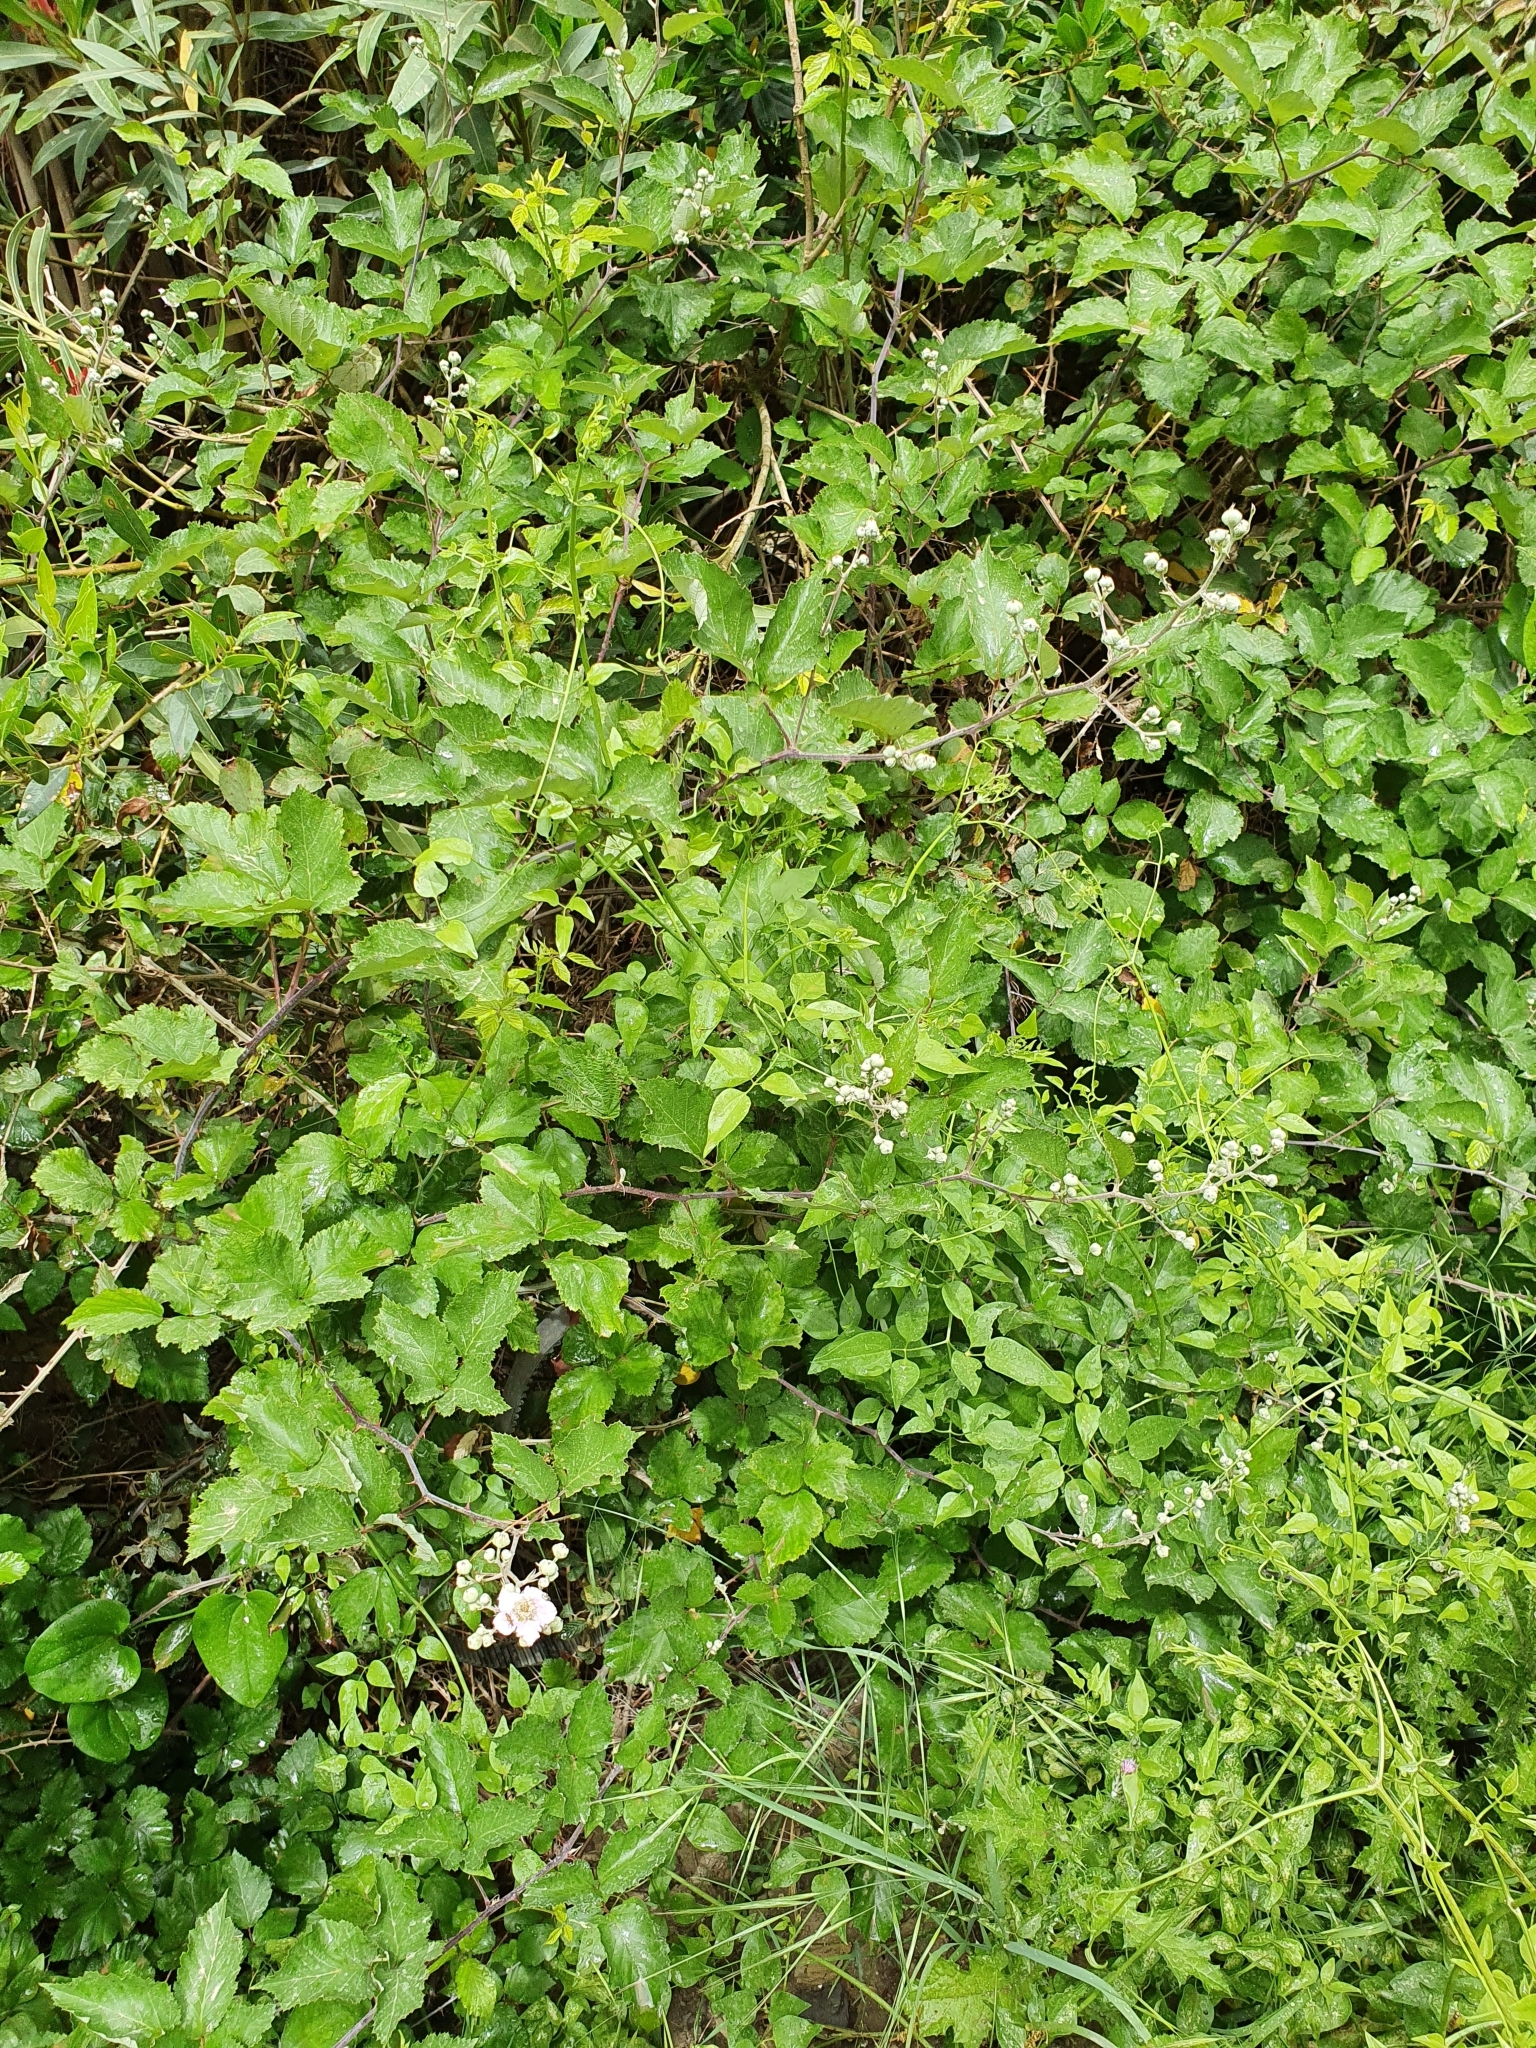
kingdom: Plantae
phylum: Tracheophyta
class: Magnoliopsida
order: Rosales
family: Rosaceae
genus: Rubus
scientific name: Rubus ulmifolius
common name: Elmleaf blackberry
